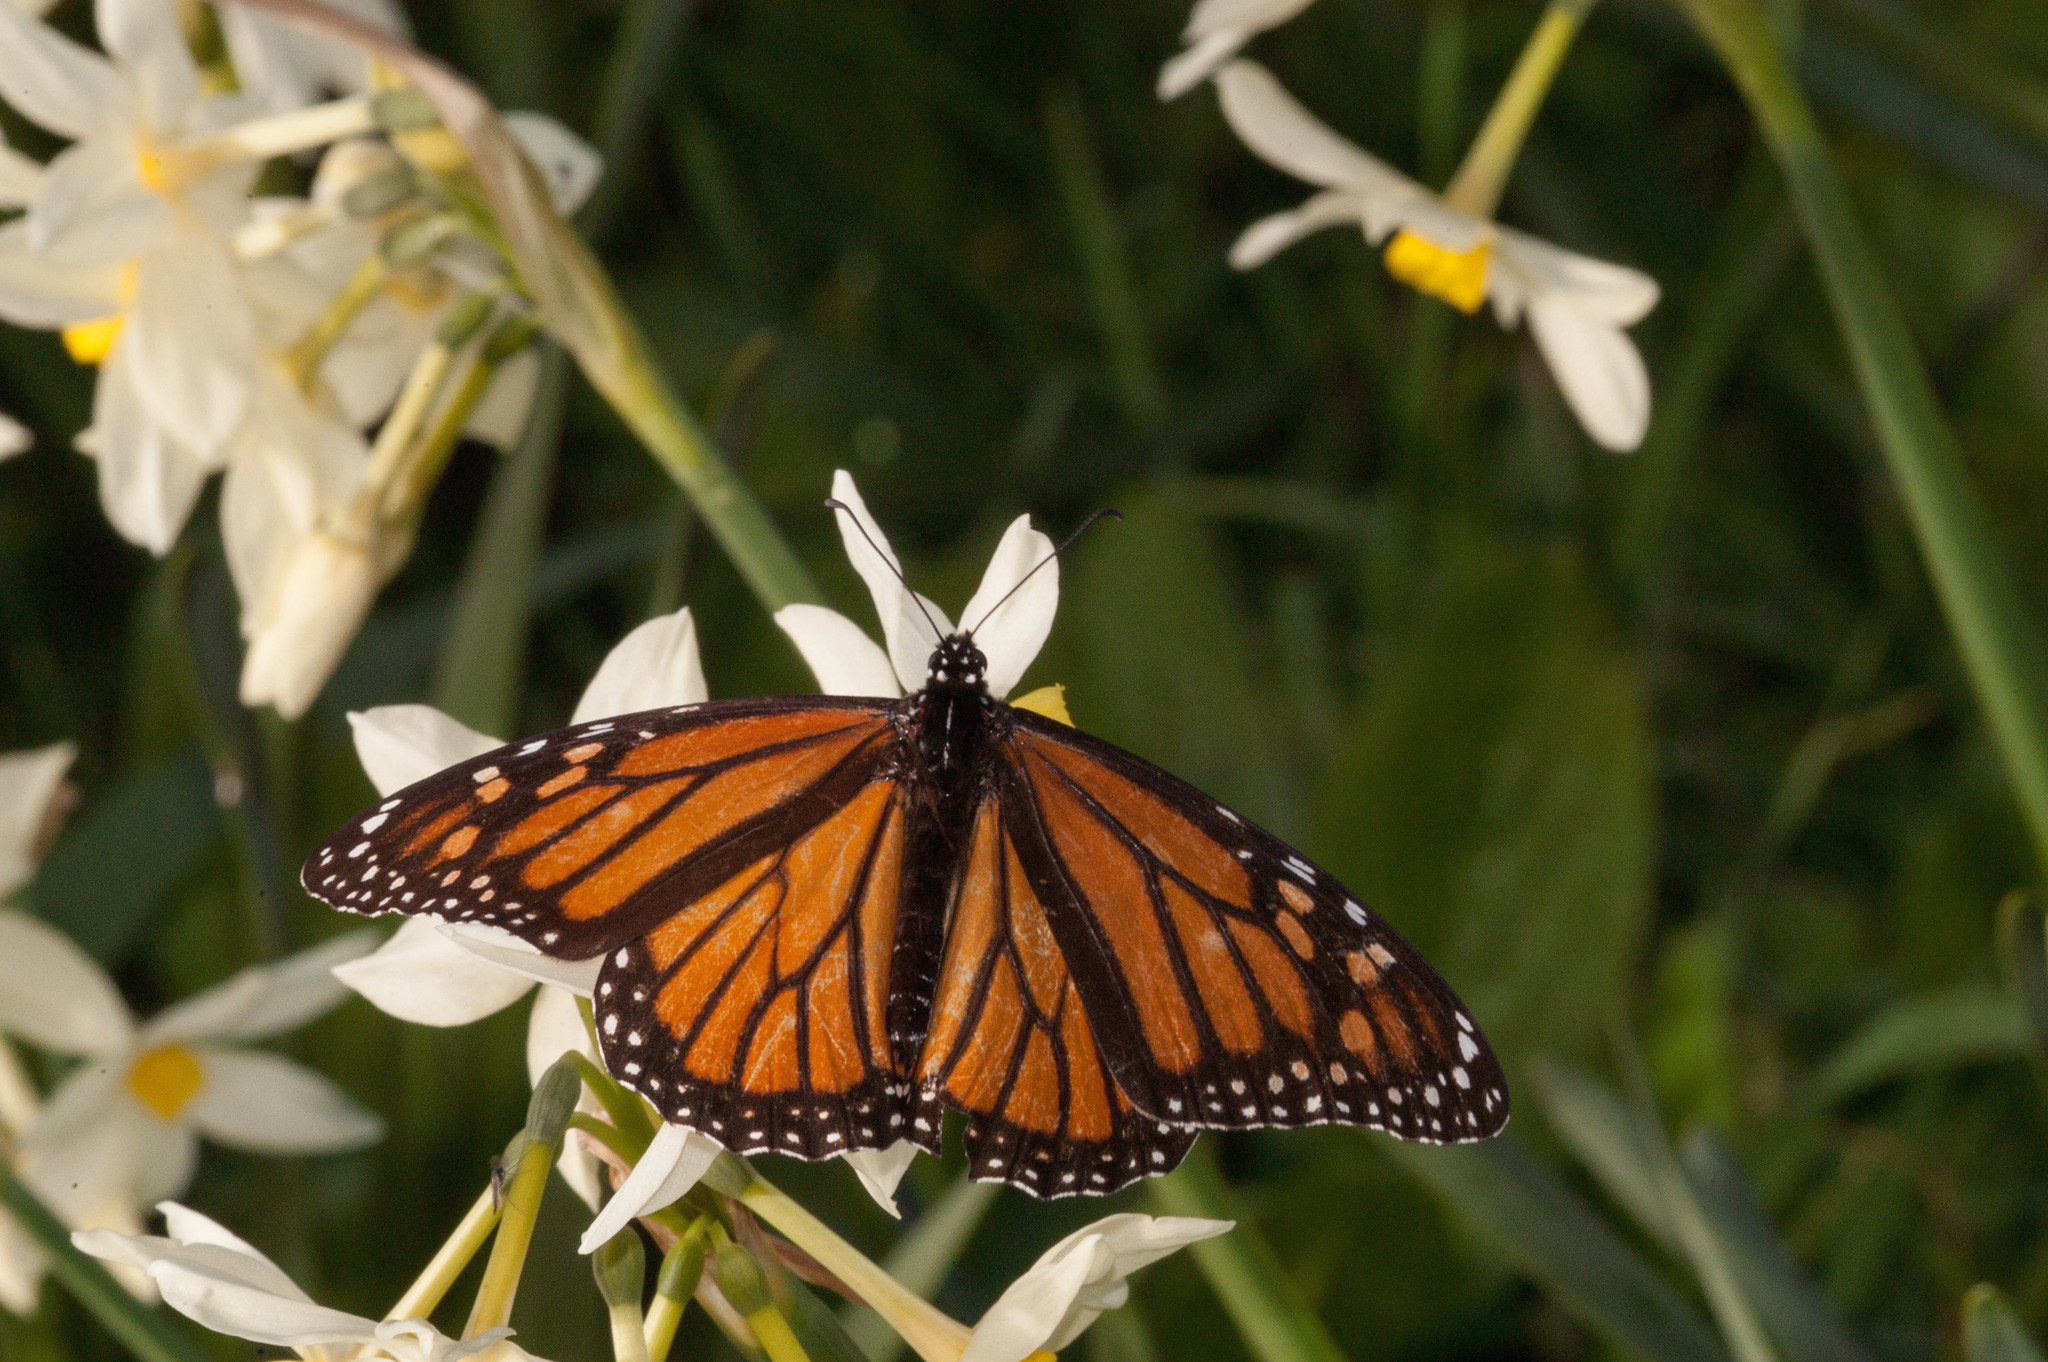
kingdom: Animalia
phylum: Arthropoda
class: Insecta
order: Lepidoptera
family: Nymphalidae
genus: Danaus
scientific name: Danaus plexippus
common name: Monarch
